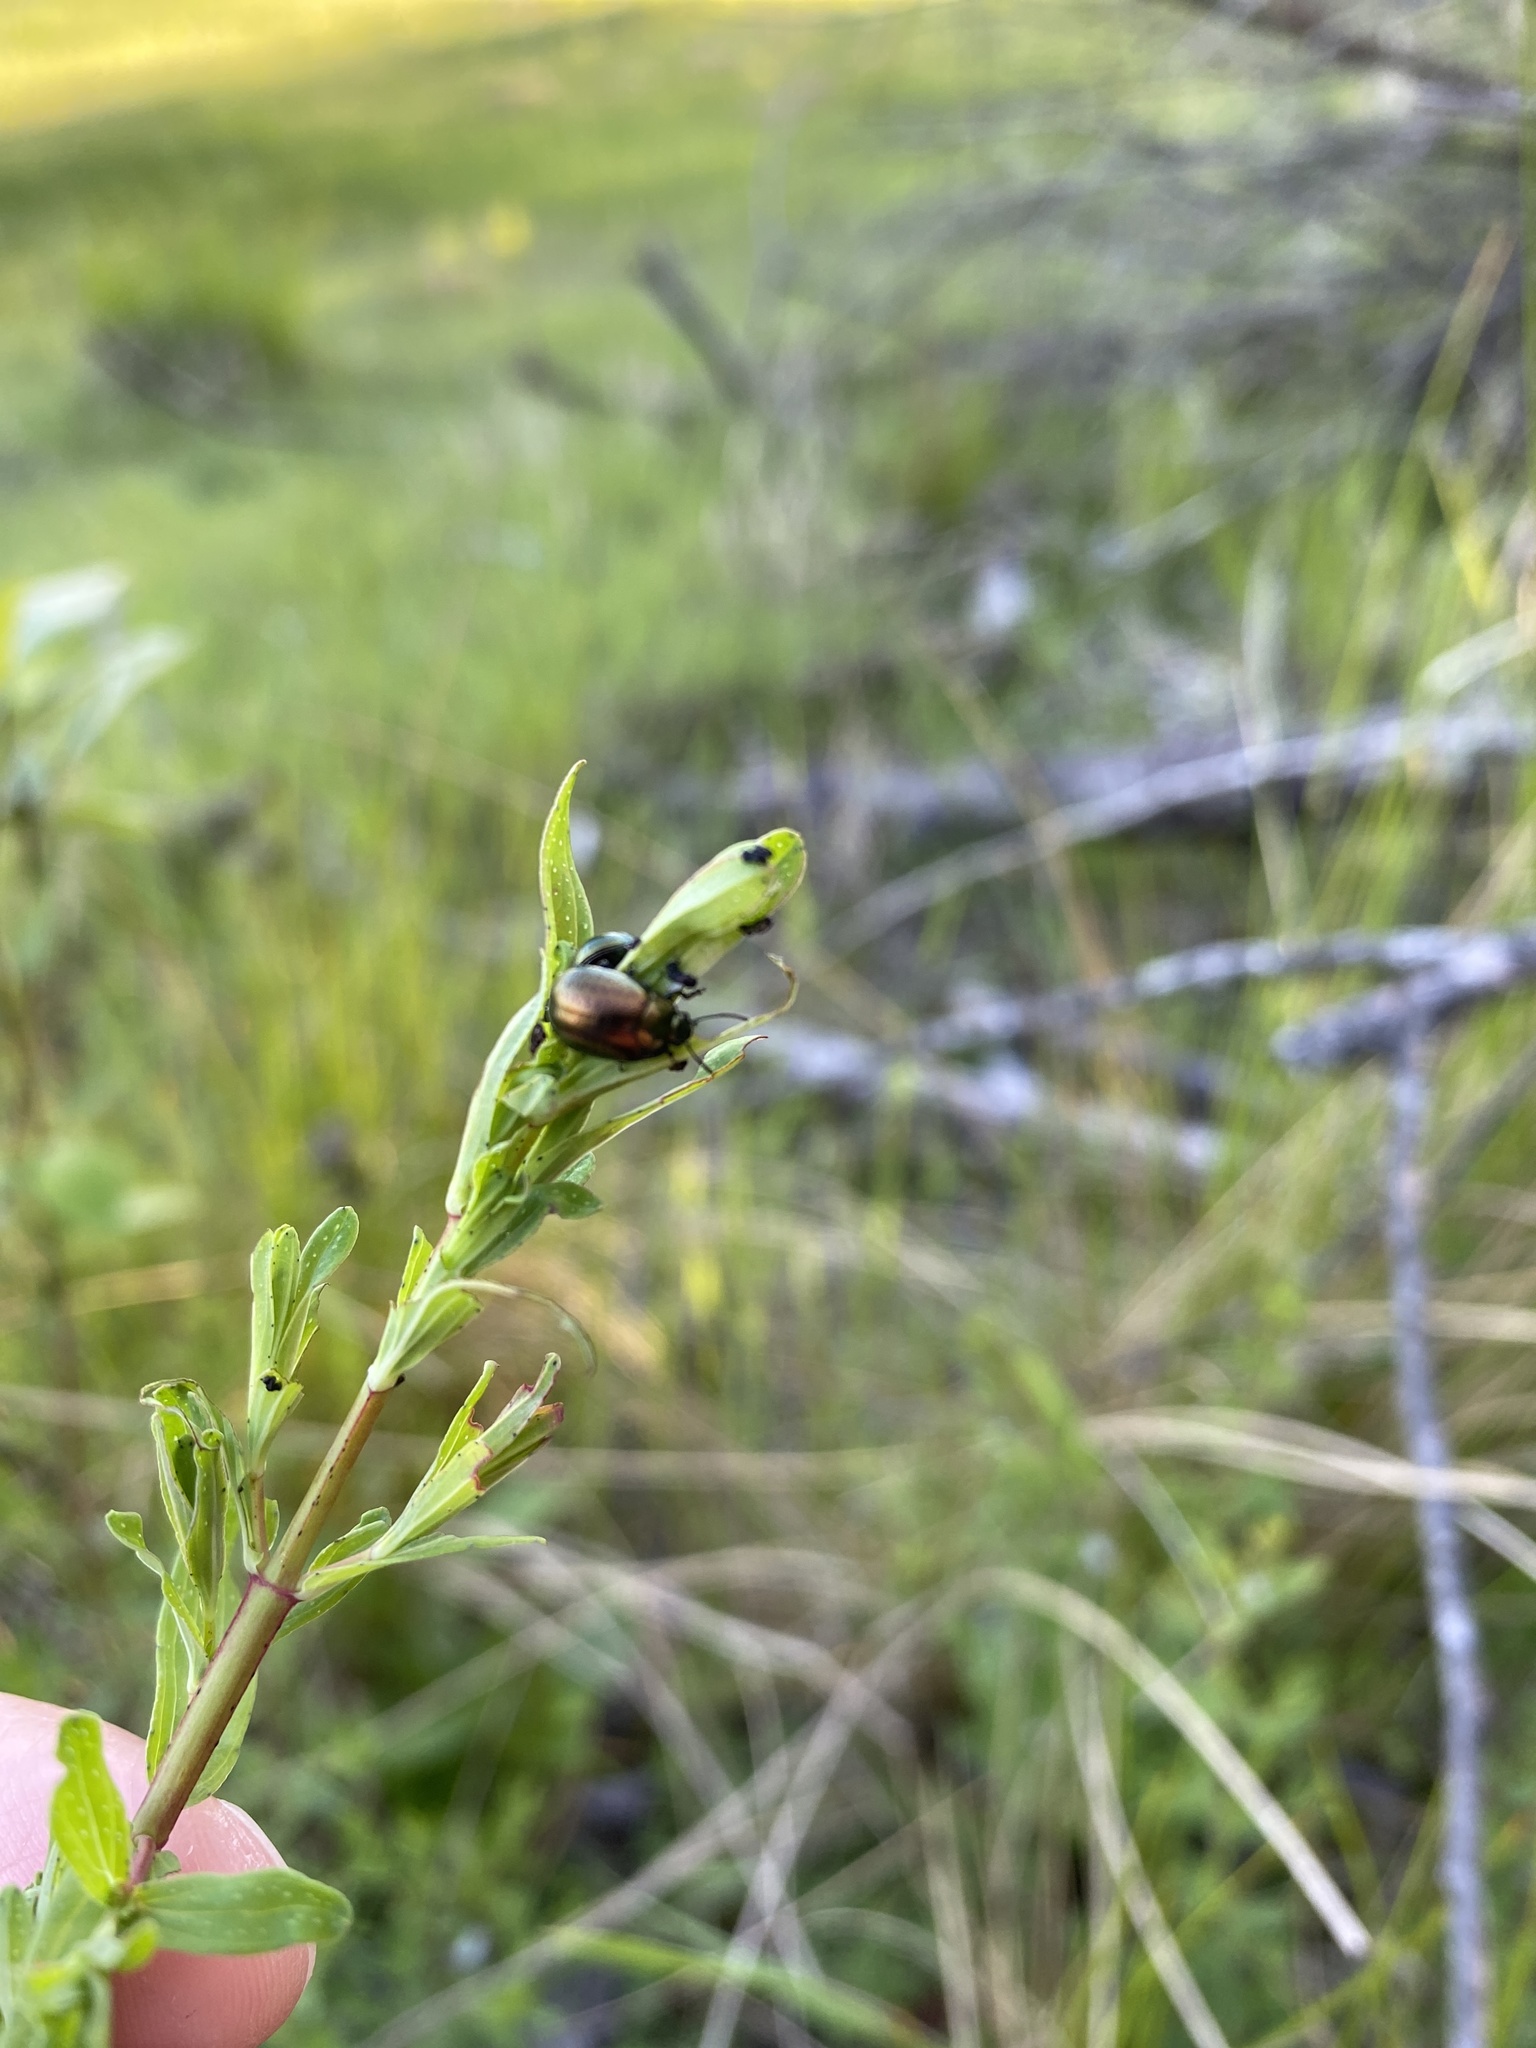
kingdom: Animalia
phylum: Arthropoda
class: Insecta
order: Coleoptera
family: Chrysomelidae
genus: Chrysolina
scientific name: Chrysolina hyperici
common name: St. johnswort beetle
